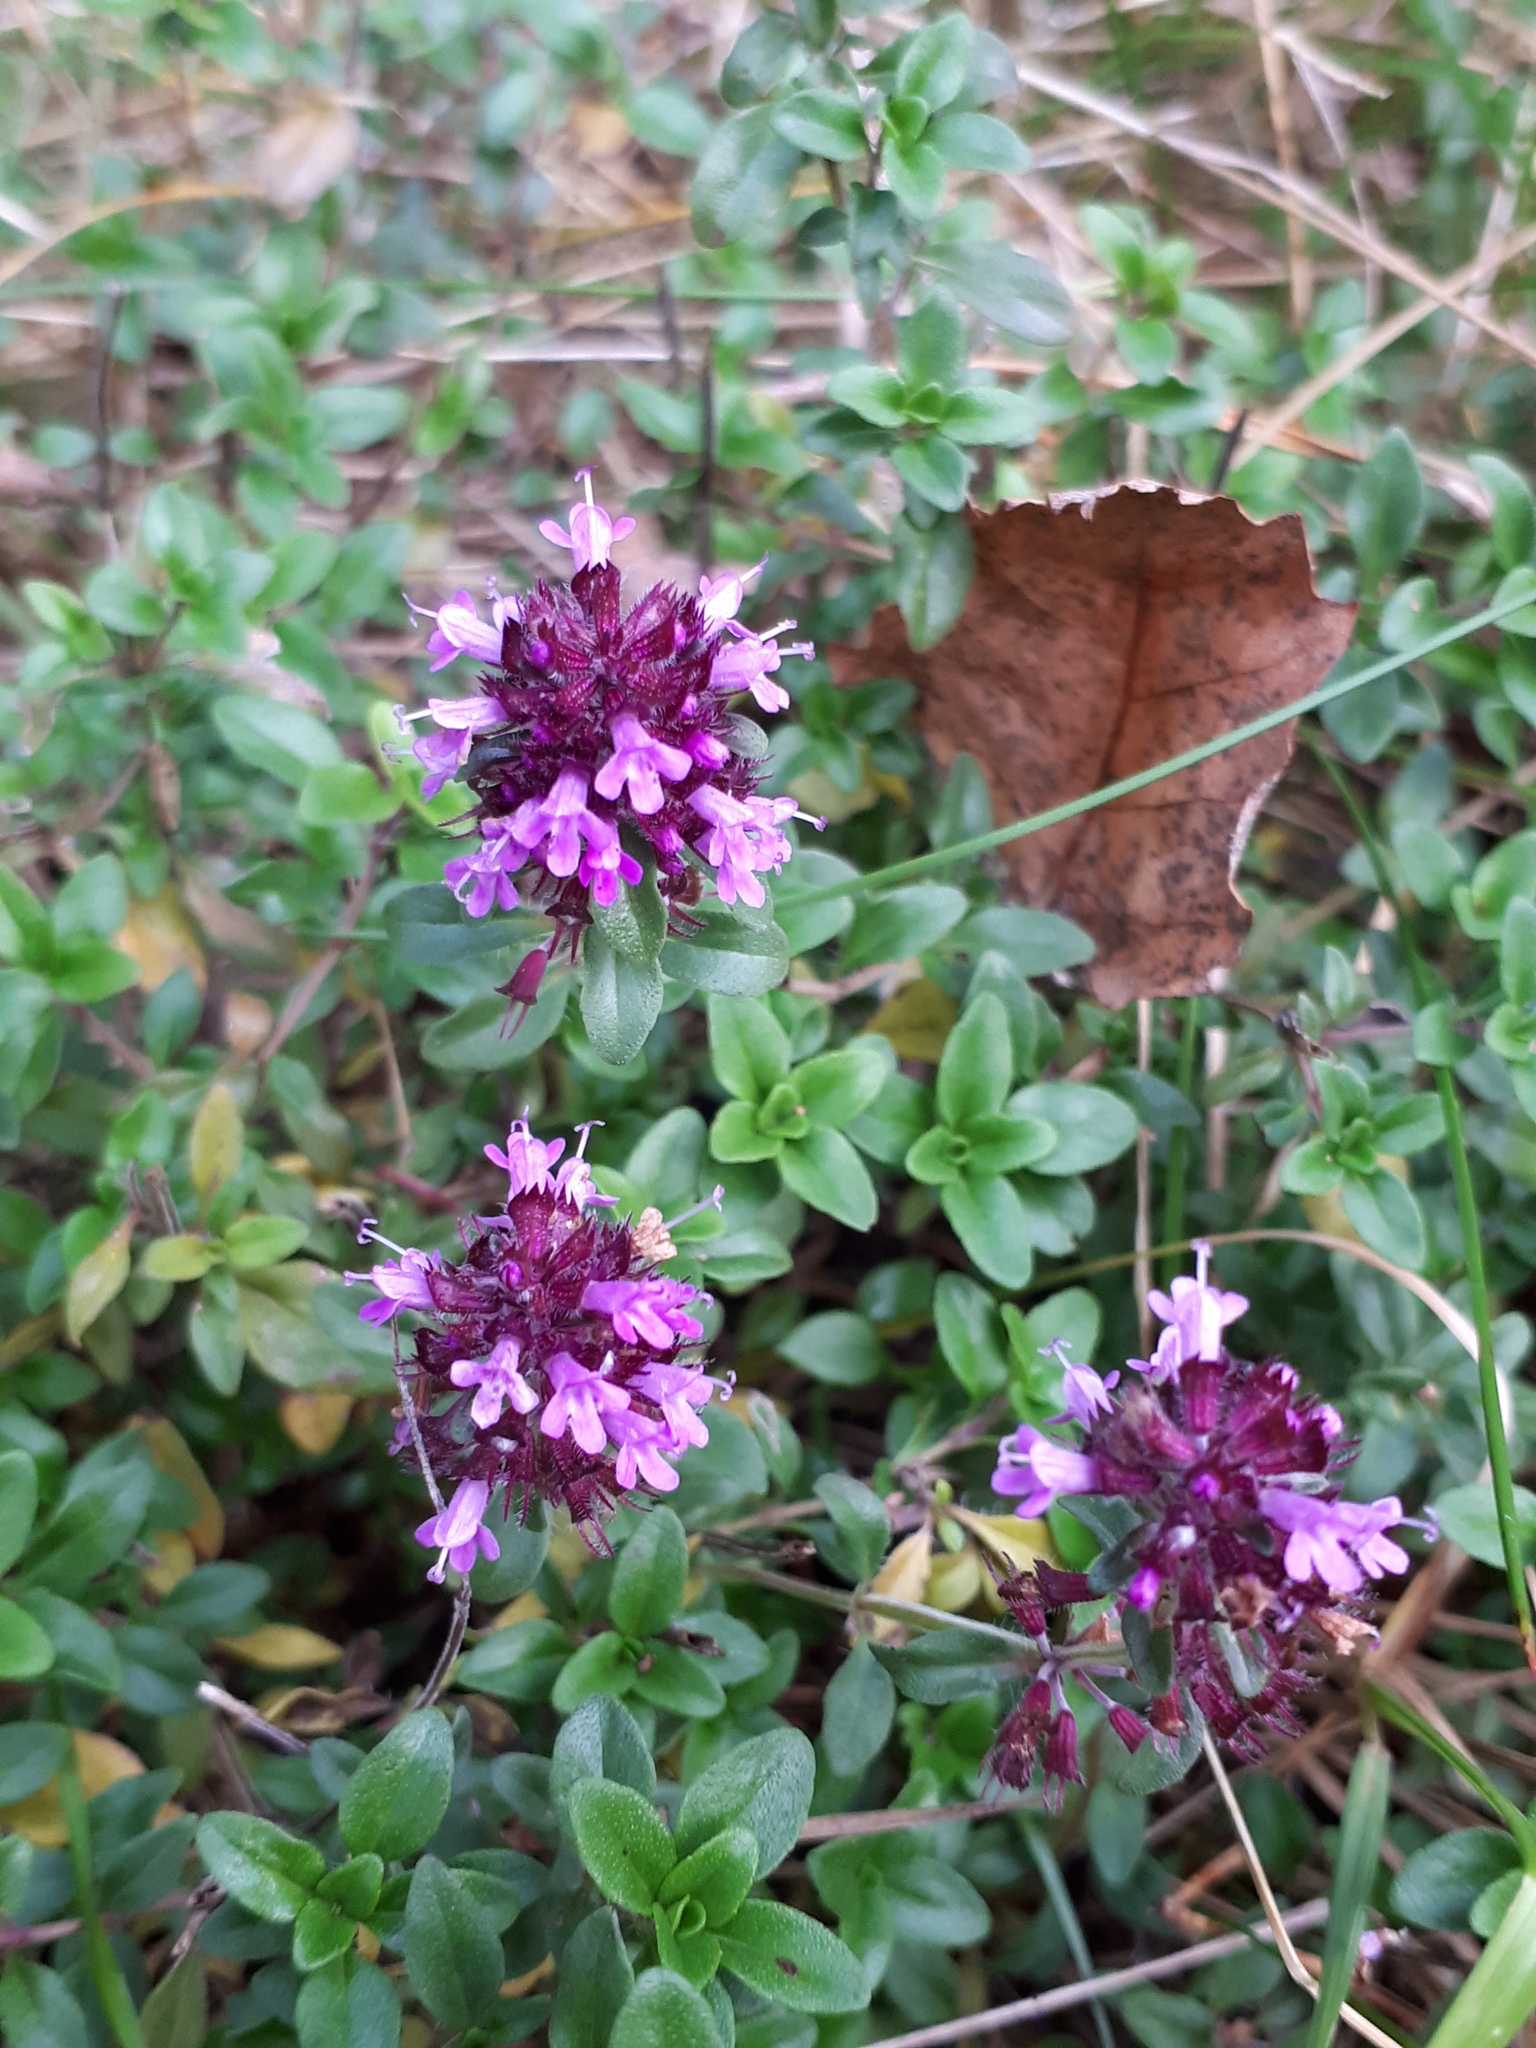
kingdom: Plantae
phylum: Tracheophyta
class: Magnoliopsida
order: Lamiales
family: Lamiaceae
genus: Thymus
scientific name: Thymus pulegioides
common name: Large thyme
